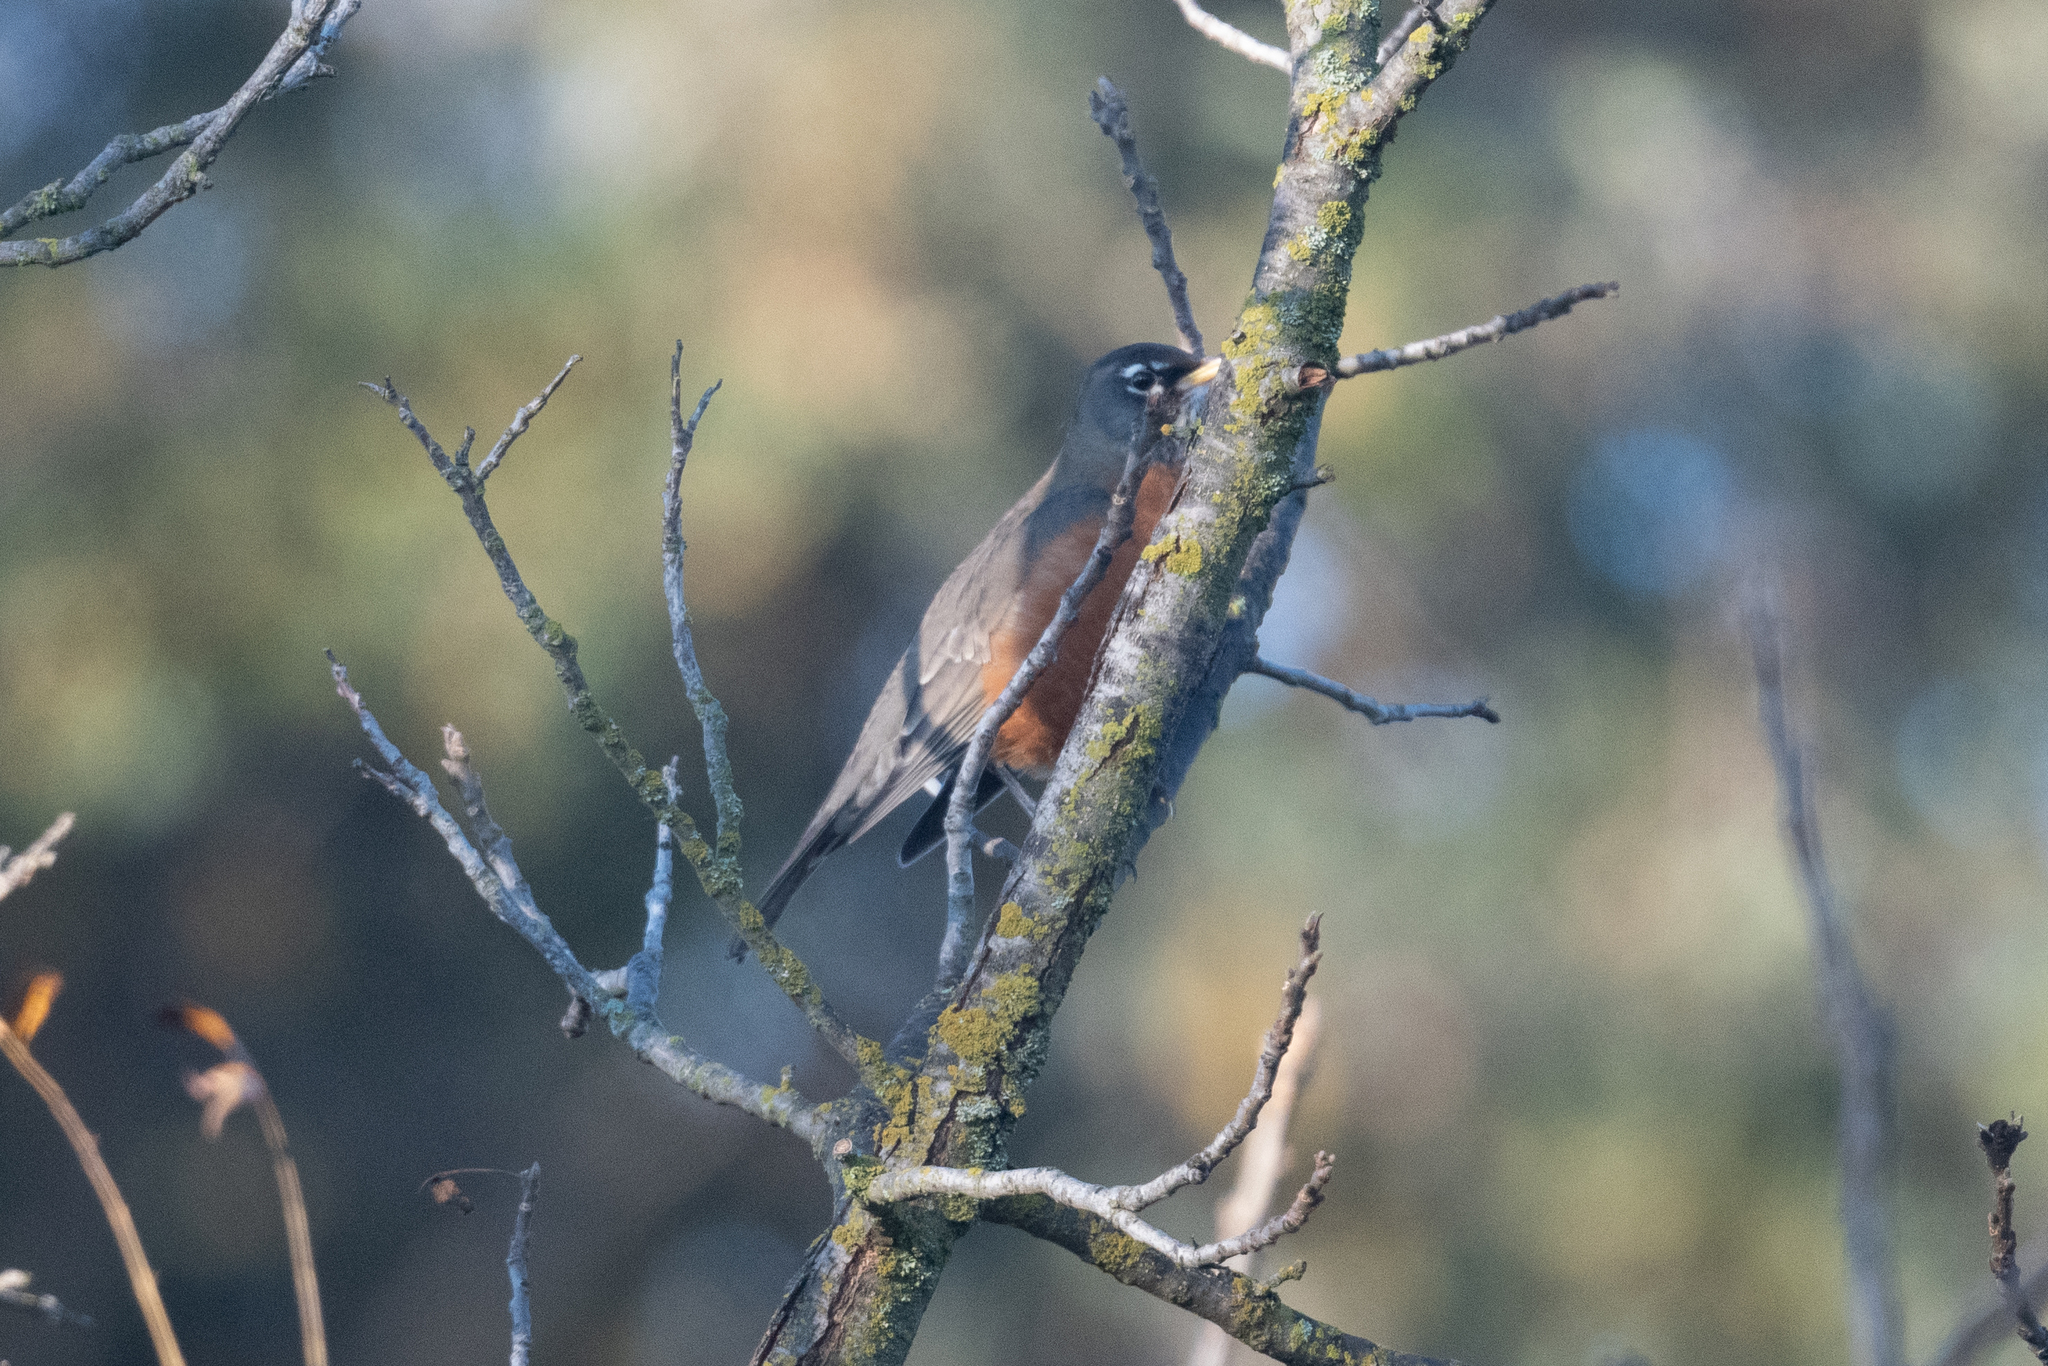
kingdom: Animalia
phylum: Chordata
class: Aves
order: Passeriformes
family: Turdidae
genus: Turdus
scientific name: Turdus migratorius
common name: American robin
